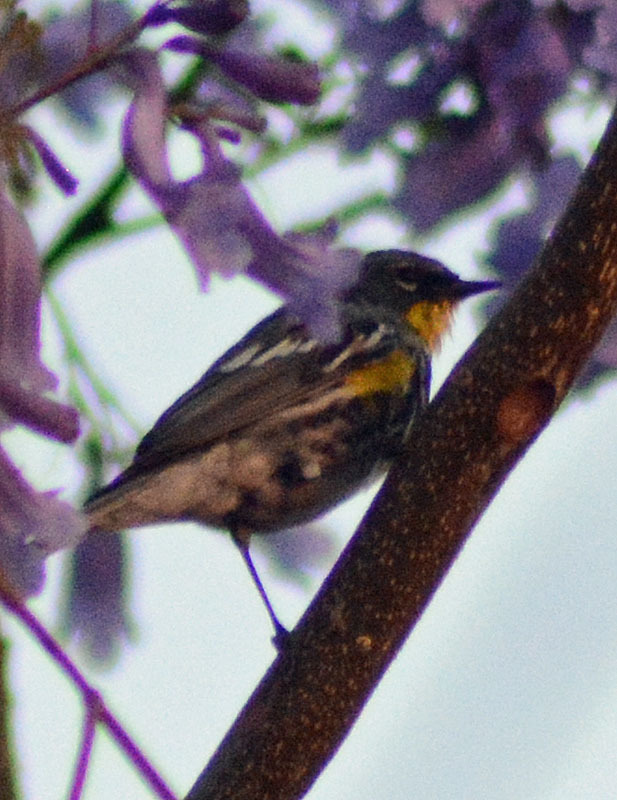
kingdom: Animalia
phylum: Chordata
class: Aves
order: Passeriformes
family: Parulidae
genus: Setophaga
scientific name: Setophaga auduboni
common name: Audubon's warbler
